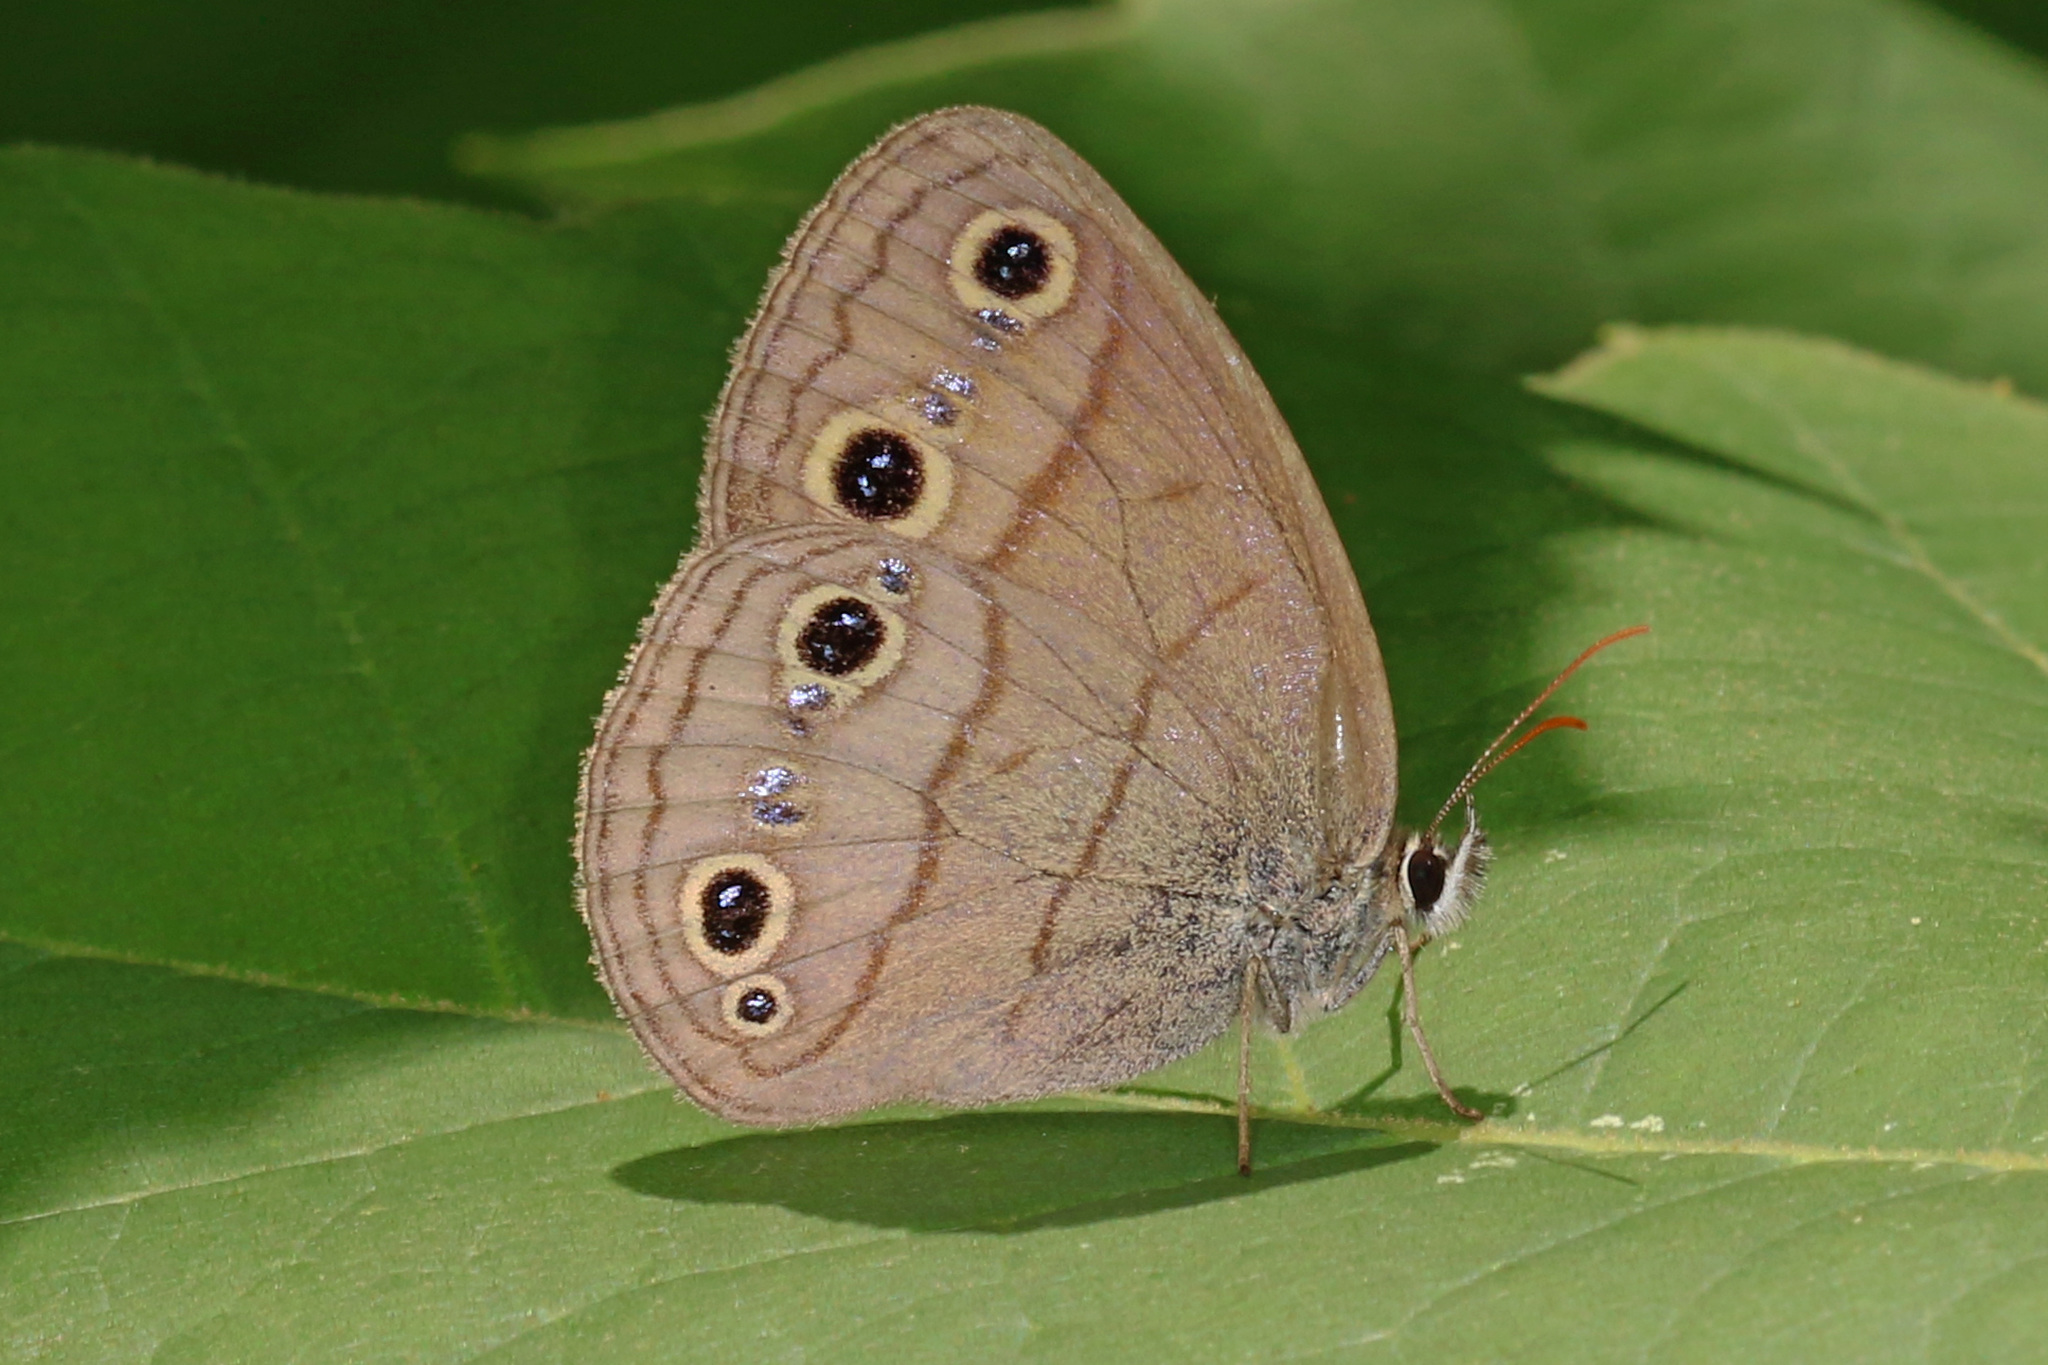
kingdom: Animalia
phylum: Arthropoda
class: Insecta
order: Lepidoptera
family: Nymphalidae
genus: Euptychia
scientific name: Euptychia cymela
